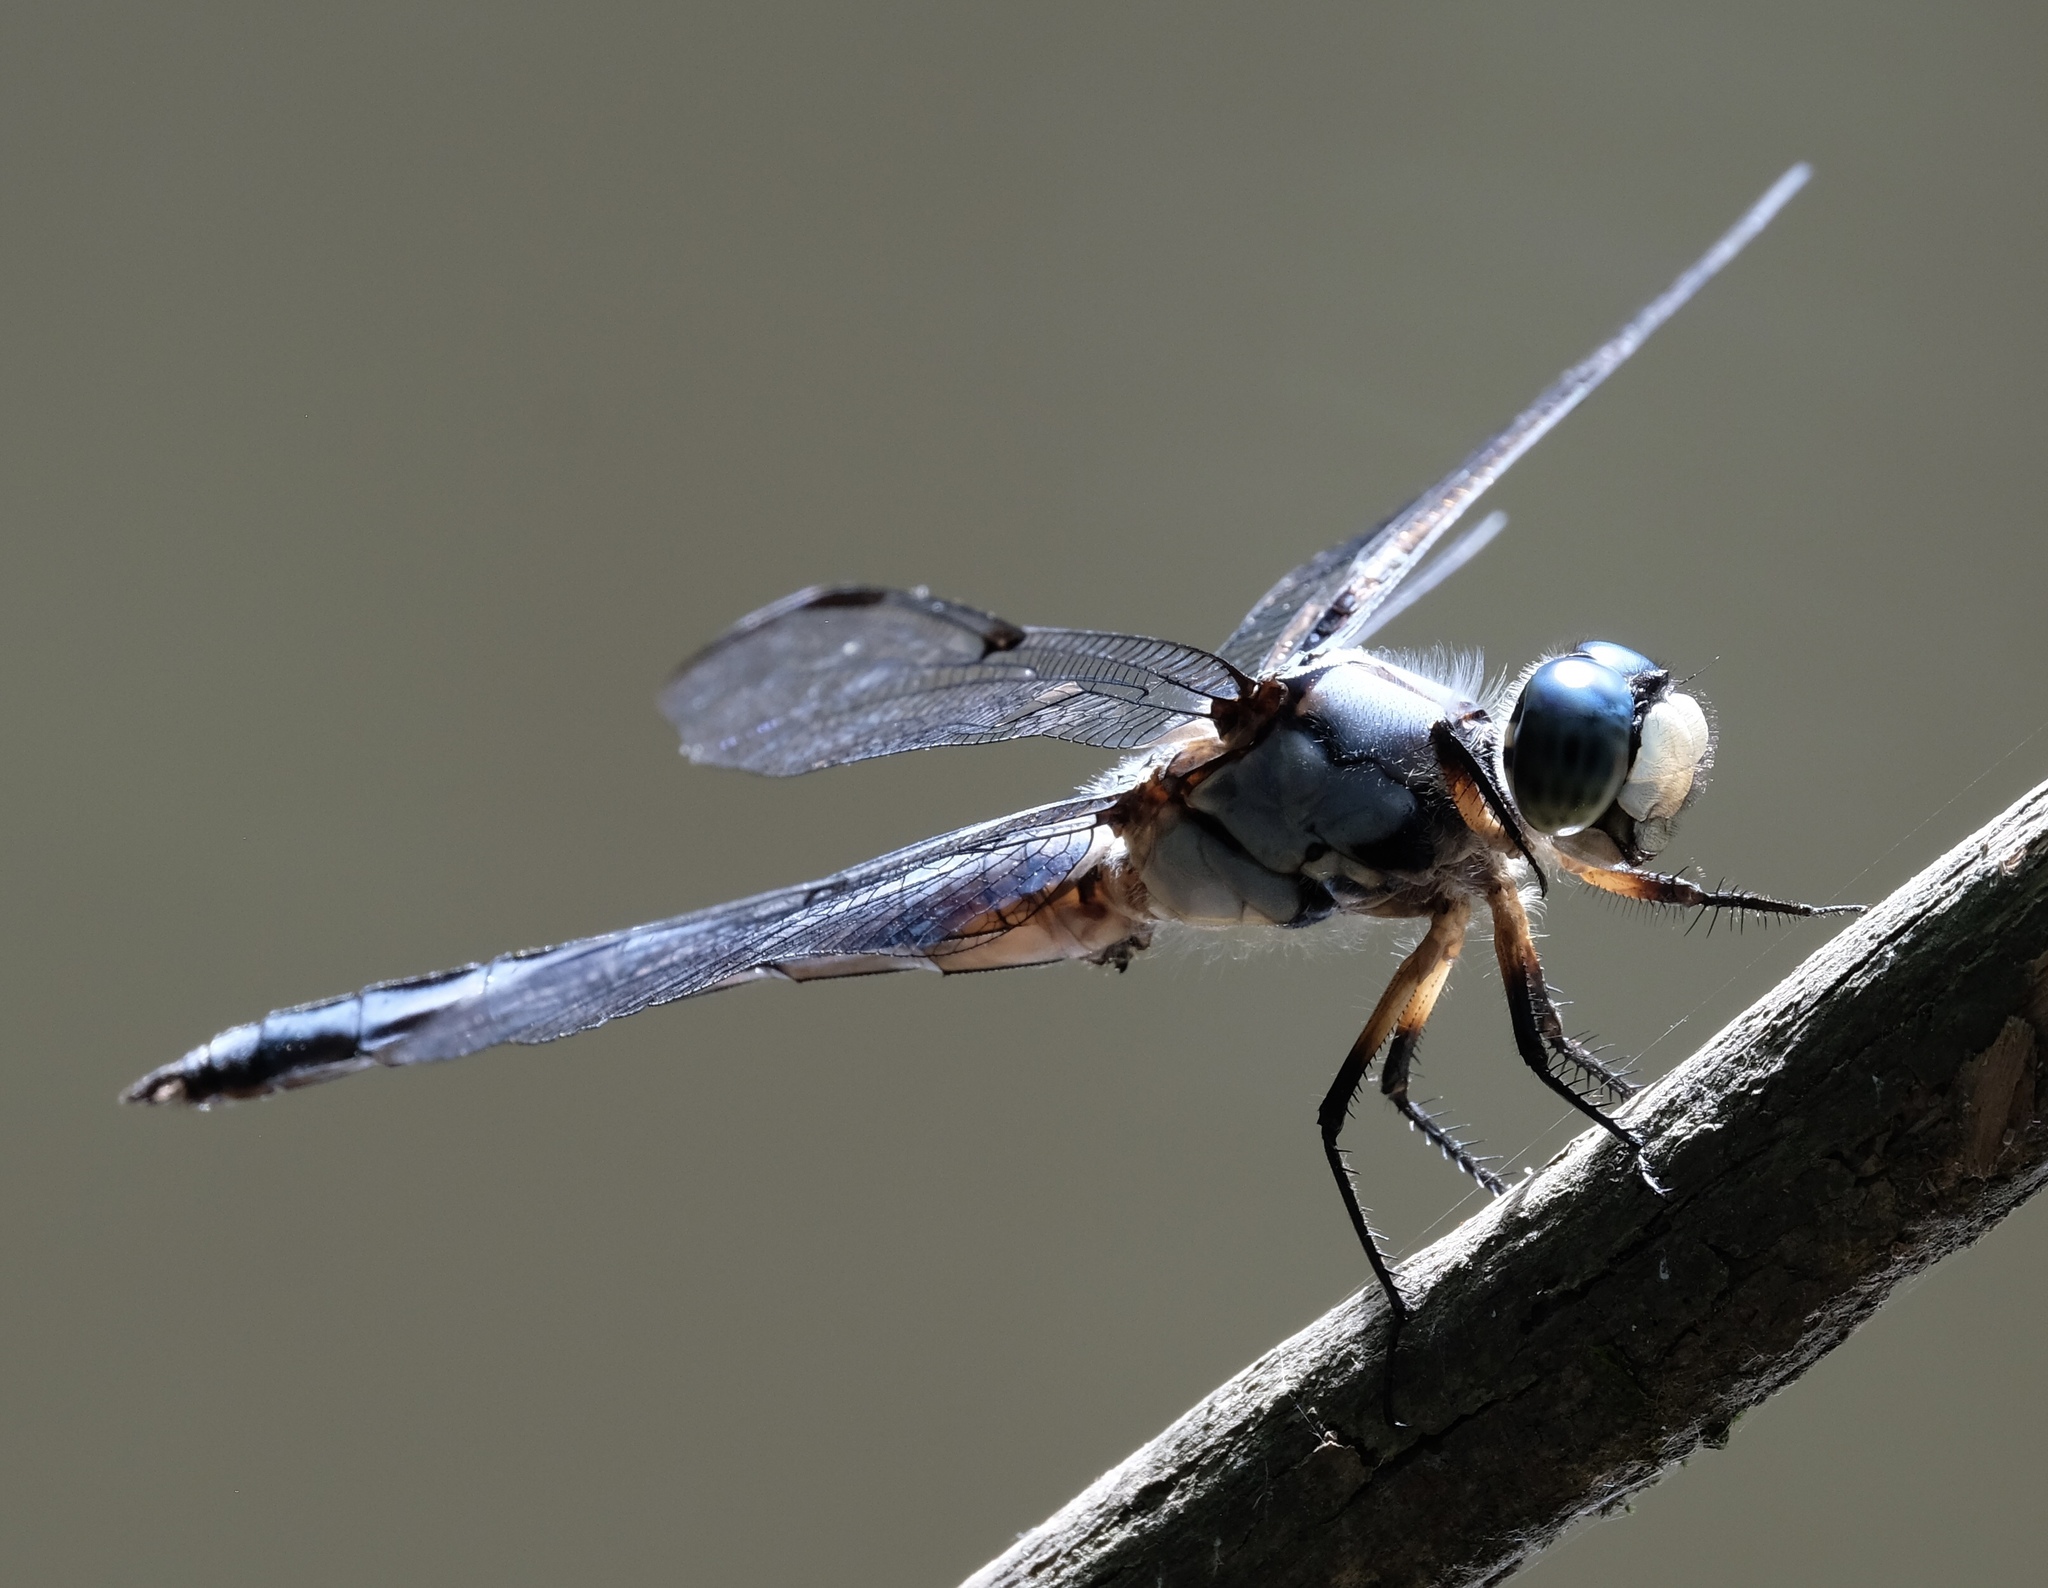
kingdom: Animalia
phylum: Arthropoda
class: Insecta
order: Odonata
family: Libellulidae
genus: Libellula
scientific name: Libellula vibrans
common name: Great blue skimmer
